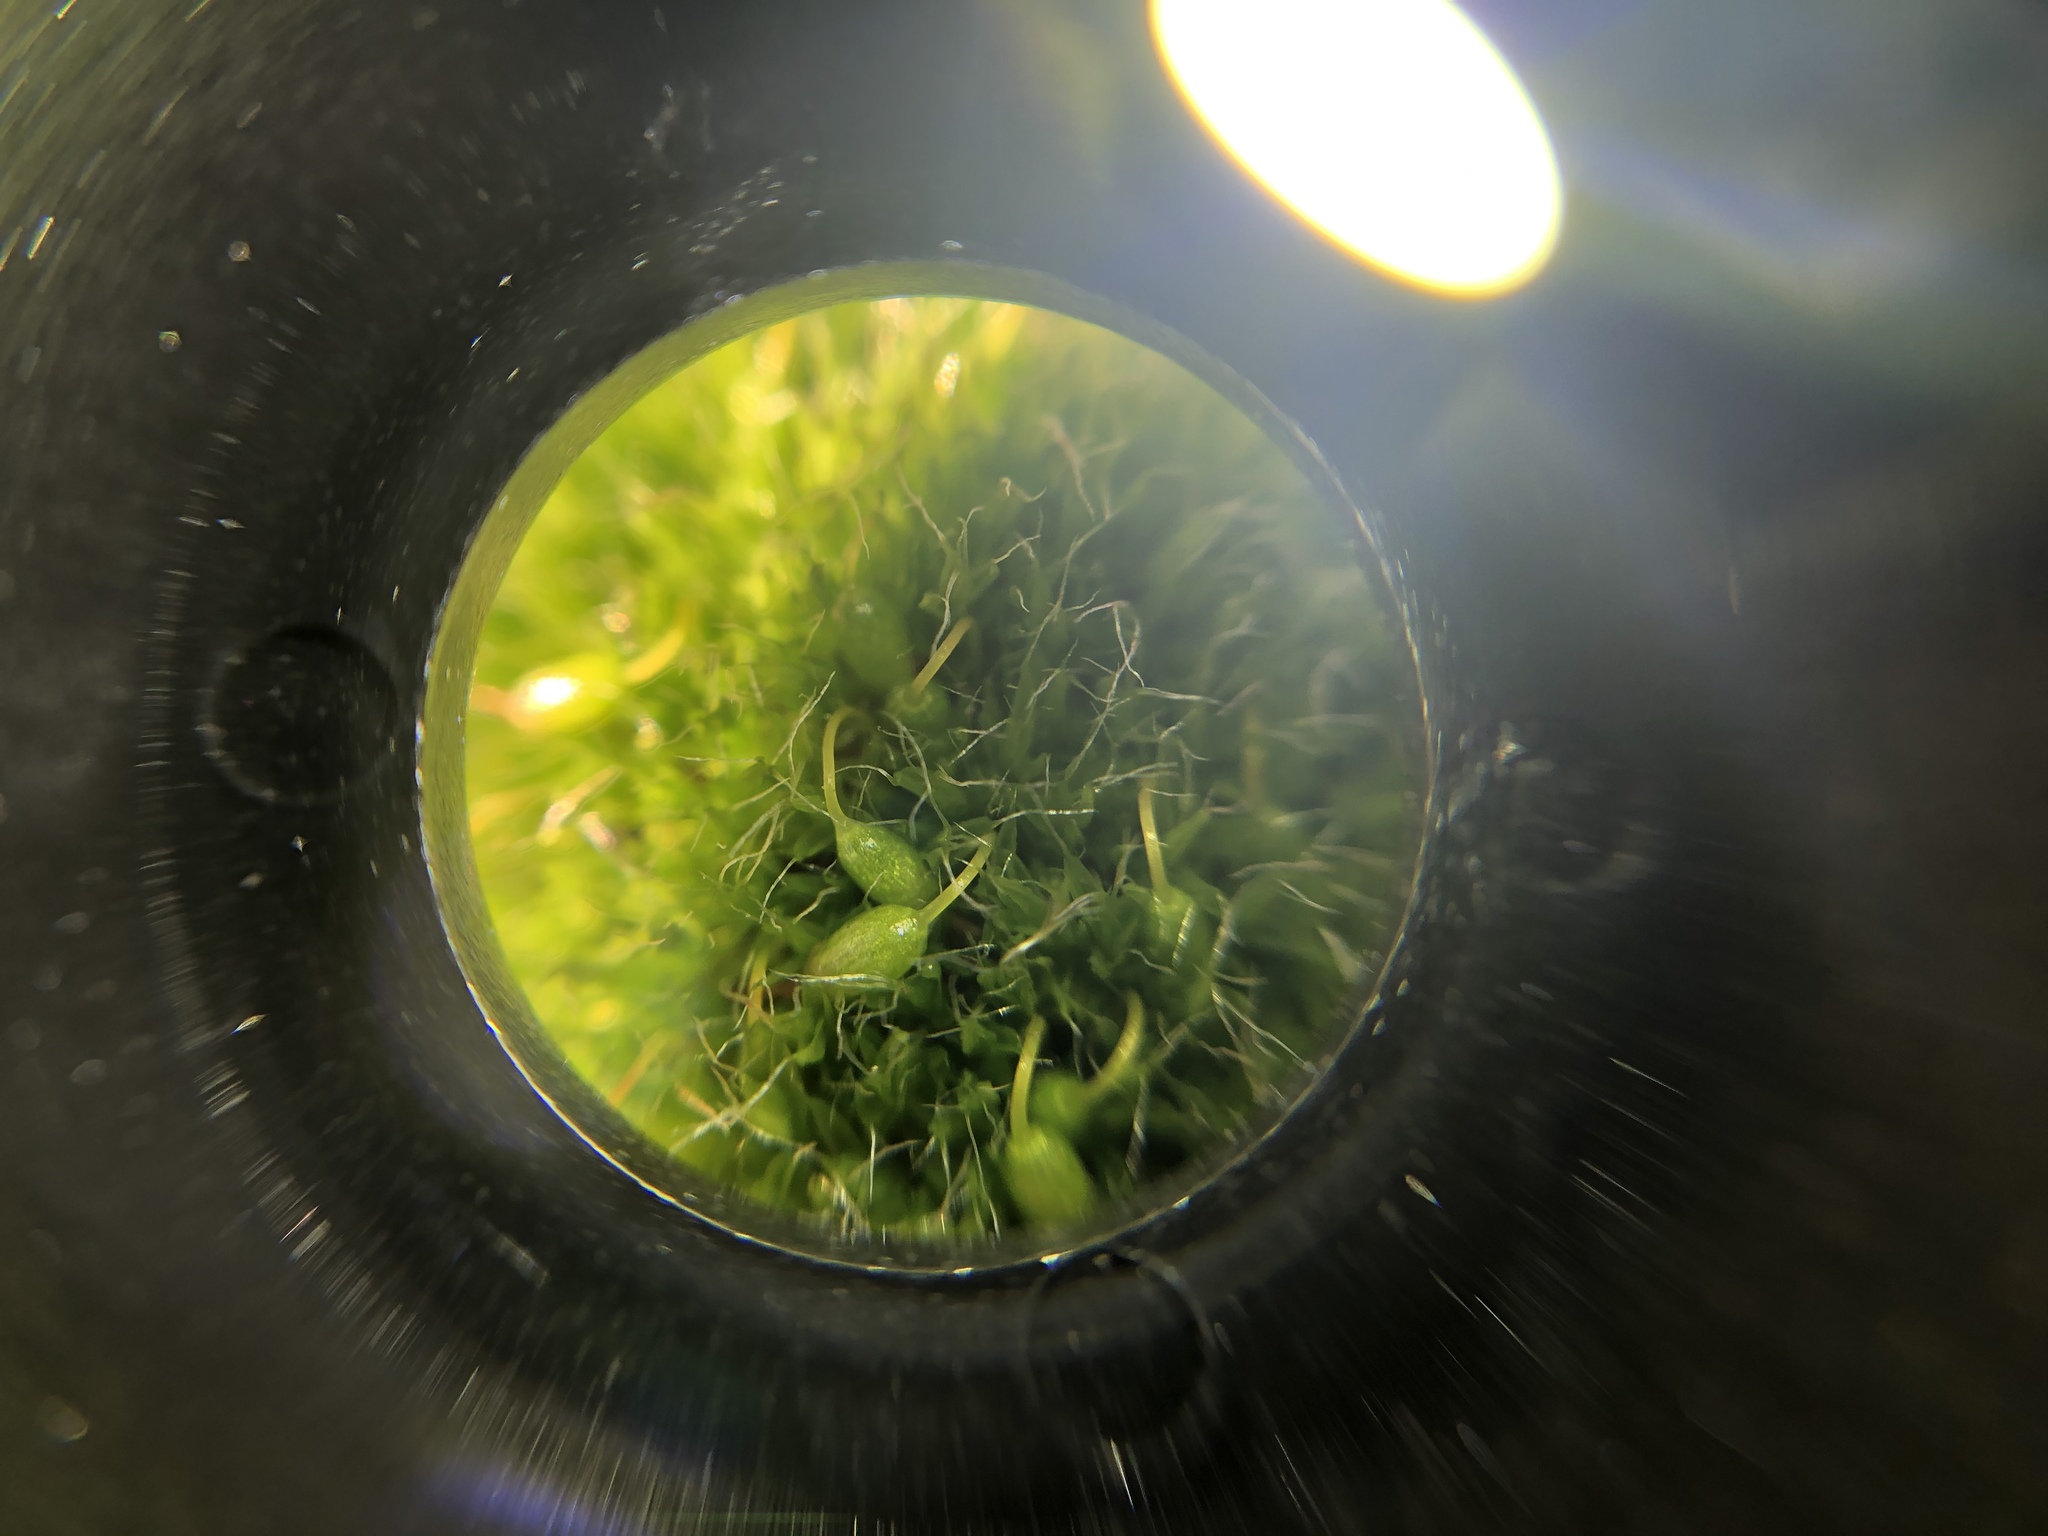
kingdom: Plantae
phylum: Bryophyta
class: Bryopsida
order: Grimmiales
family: Grimmiaceae
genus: Grimmia
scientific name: Grimmia pulvinata
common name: Grey-cushioned grimmia
